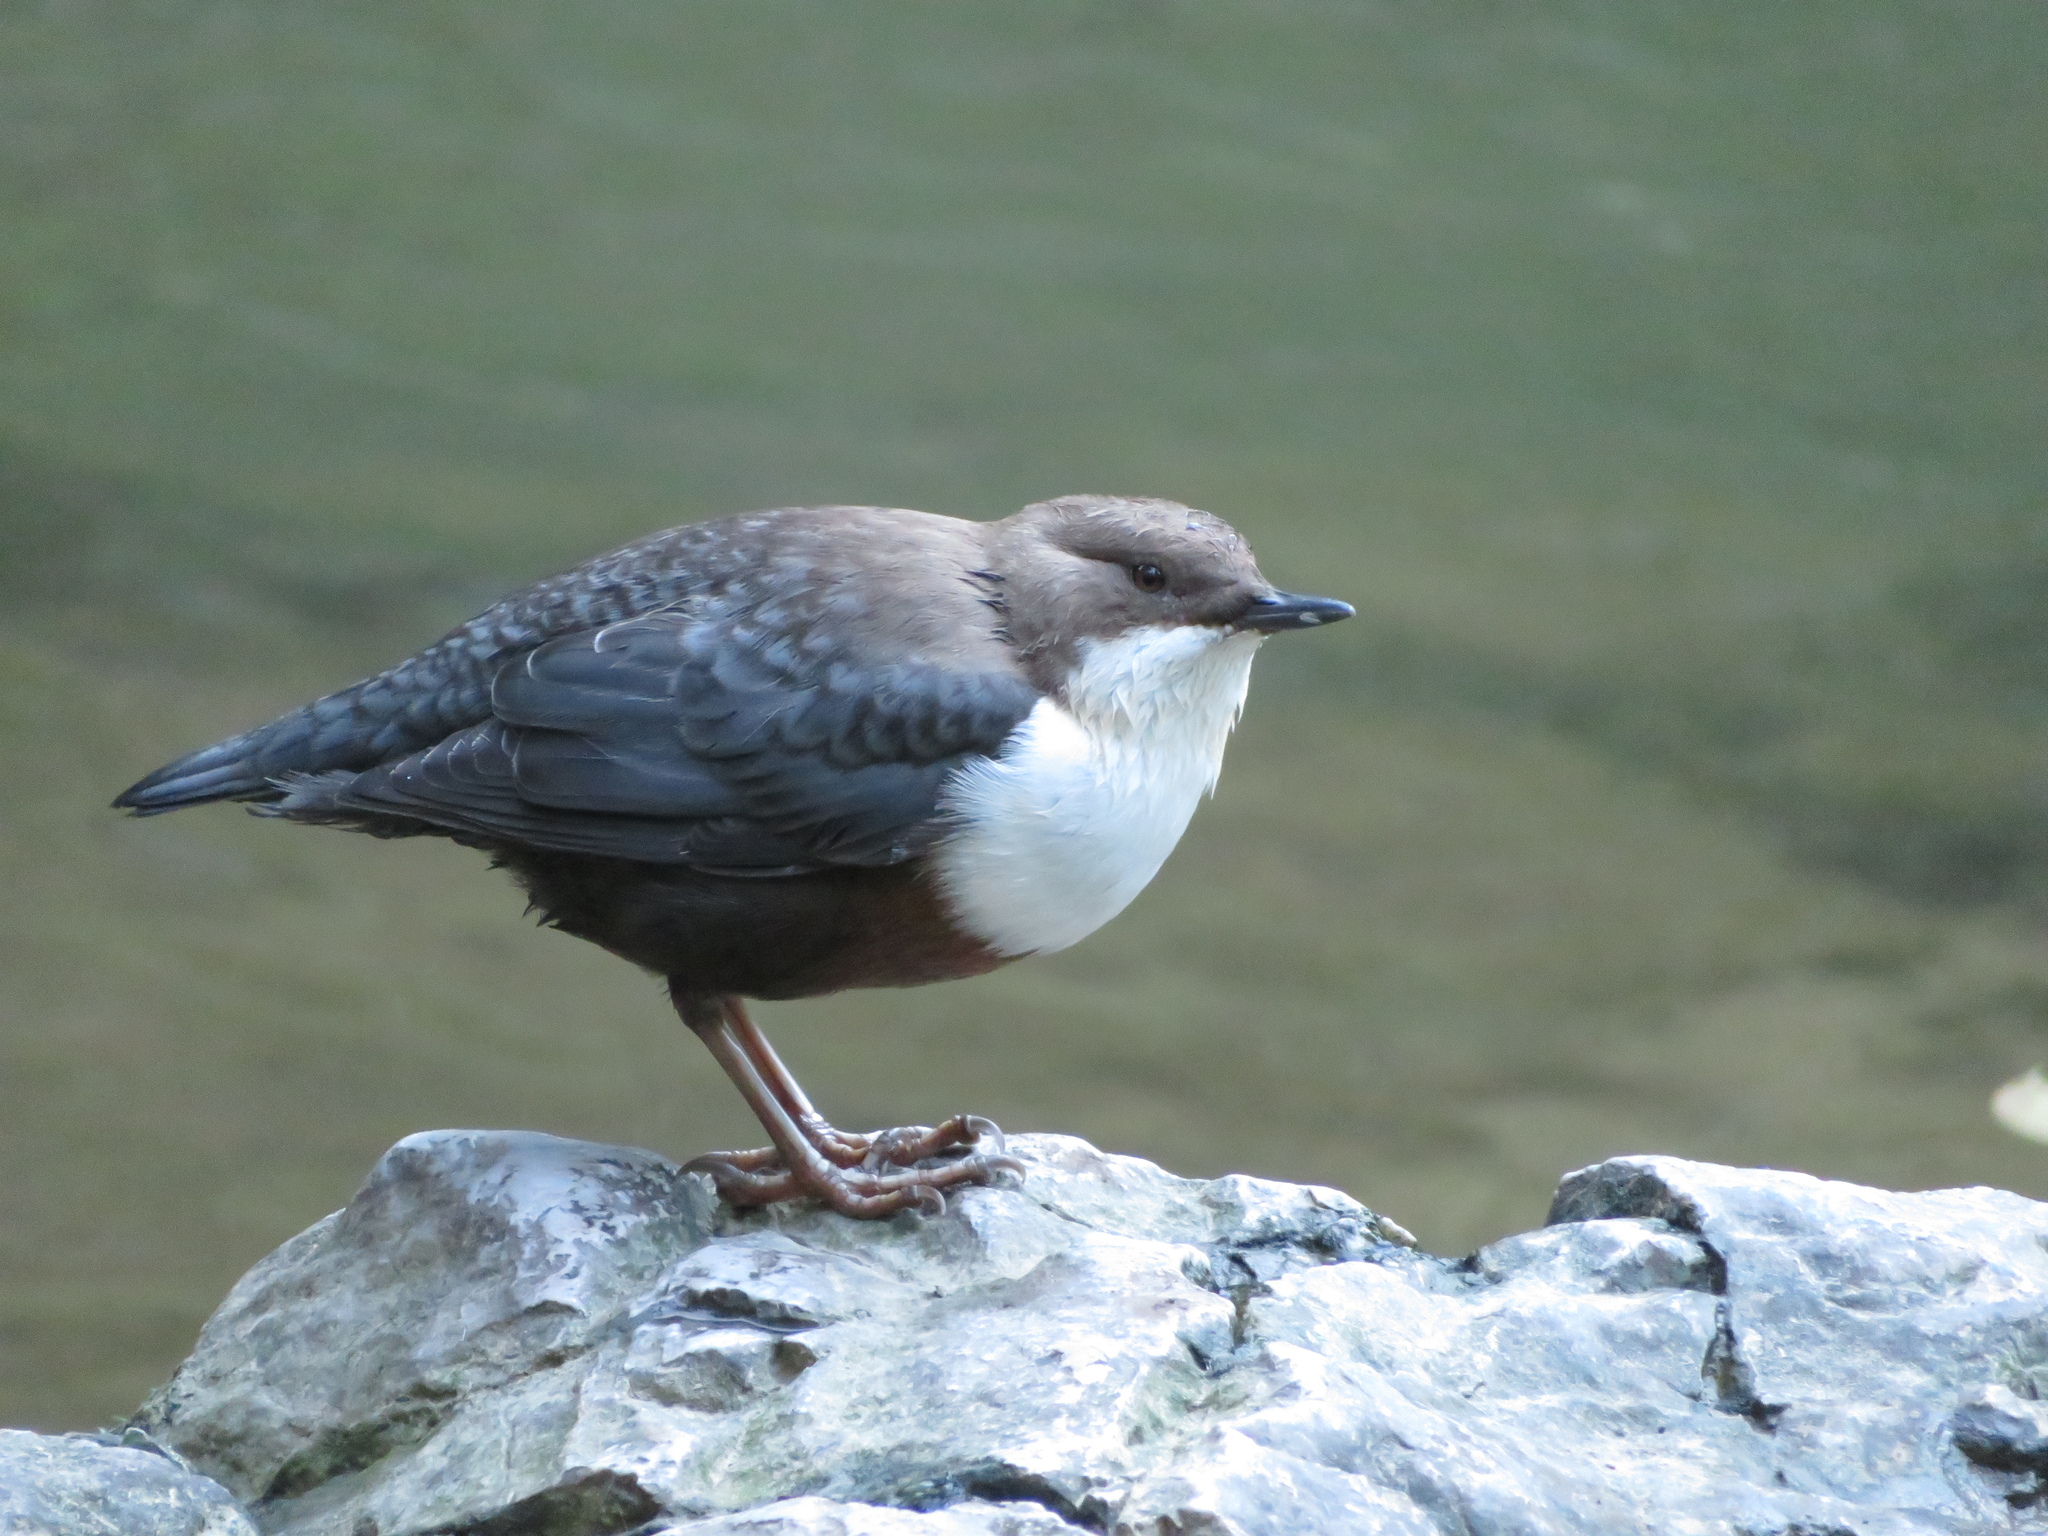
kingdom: Animalia
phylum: Chordata
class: Aves
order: Passeriformes
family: Cinclidae
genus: Cinclus
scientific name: Cinclus cinclus
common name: White-throated dipper
